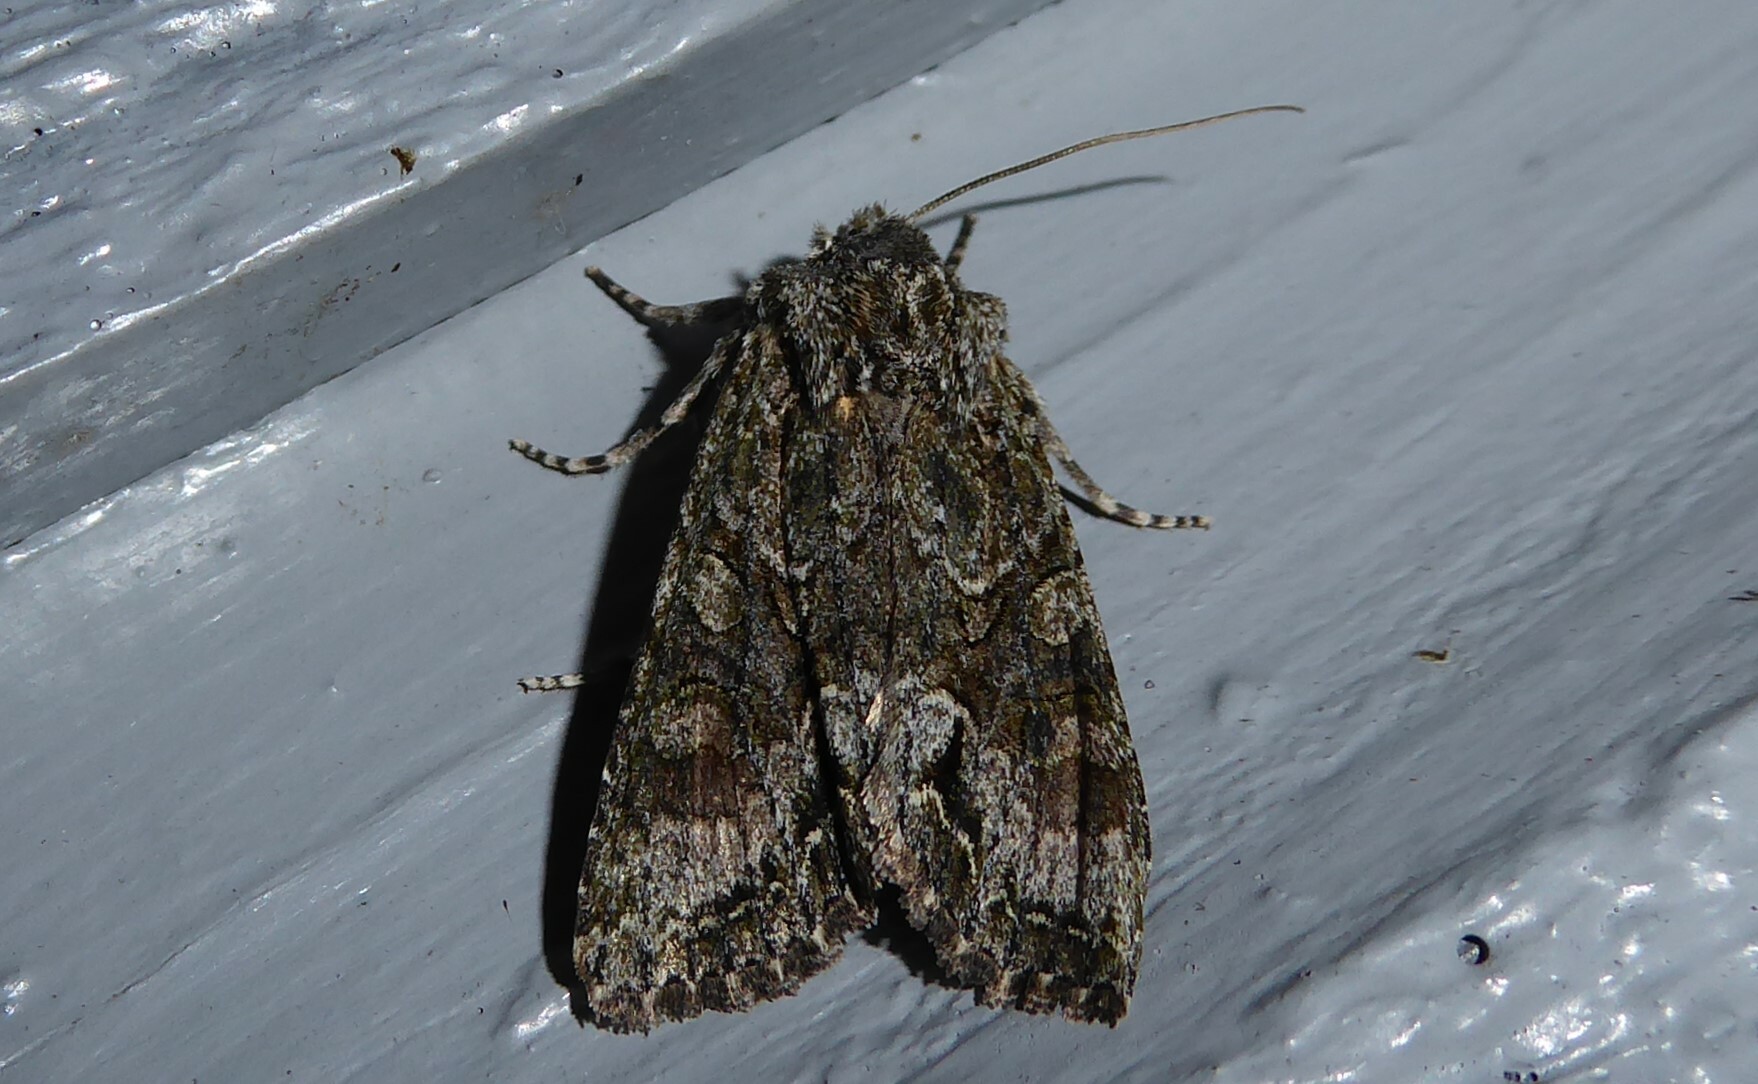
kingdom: Animalia
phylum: Arthropoda
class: Insecta
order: Lepidoptera
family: Noctuidae
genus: Ichneutica
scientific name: Ichneutica mutans
